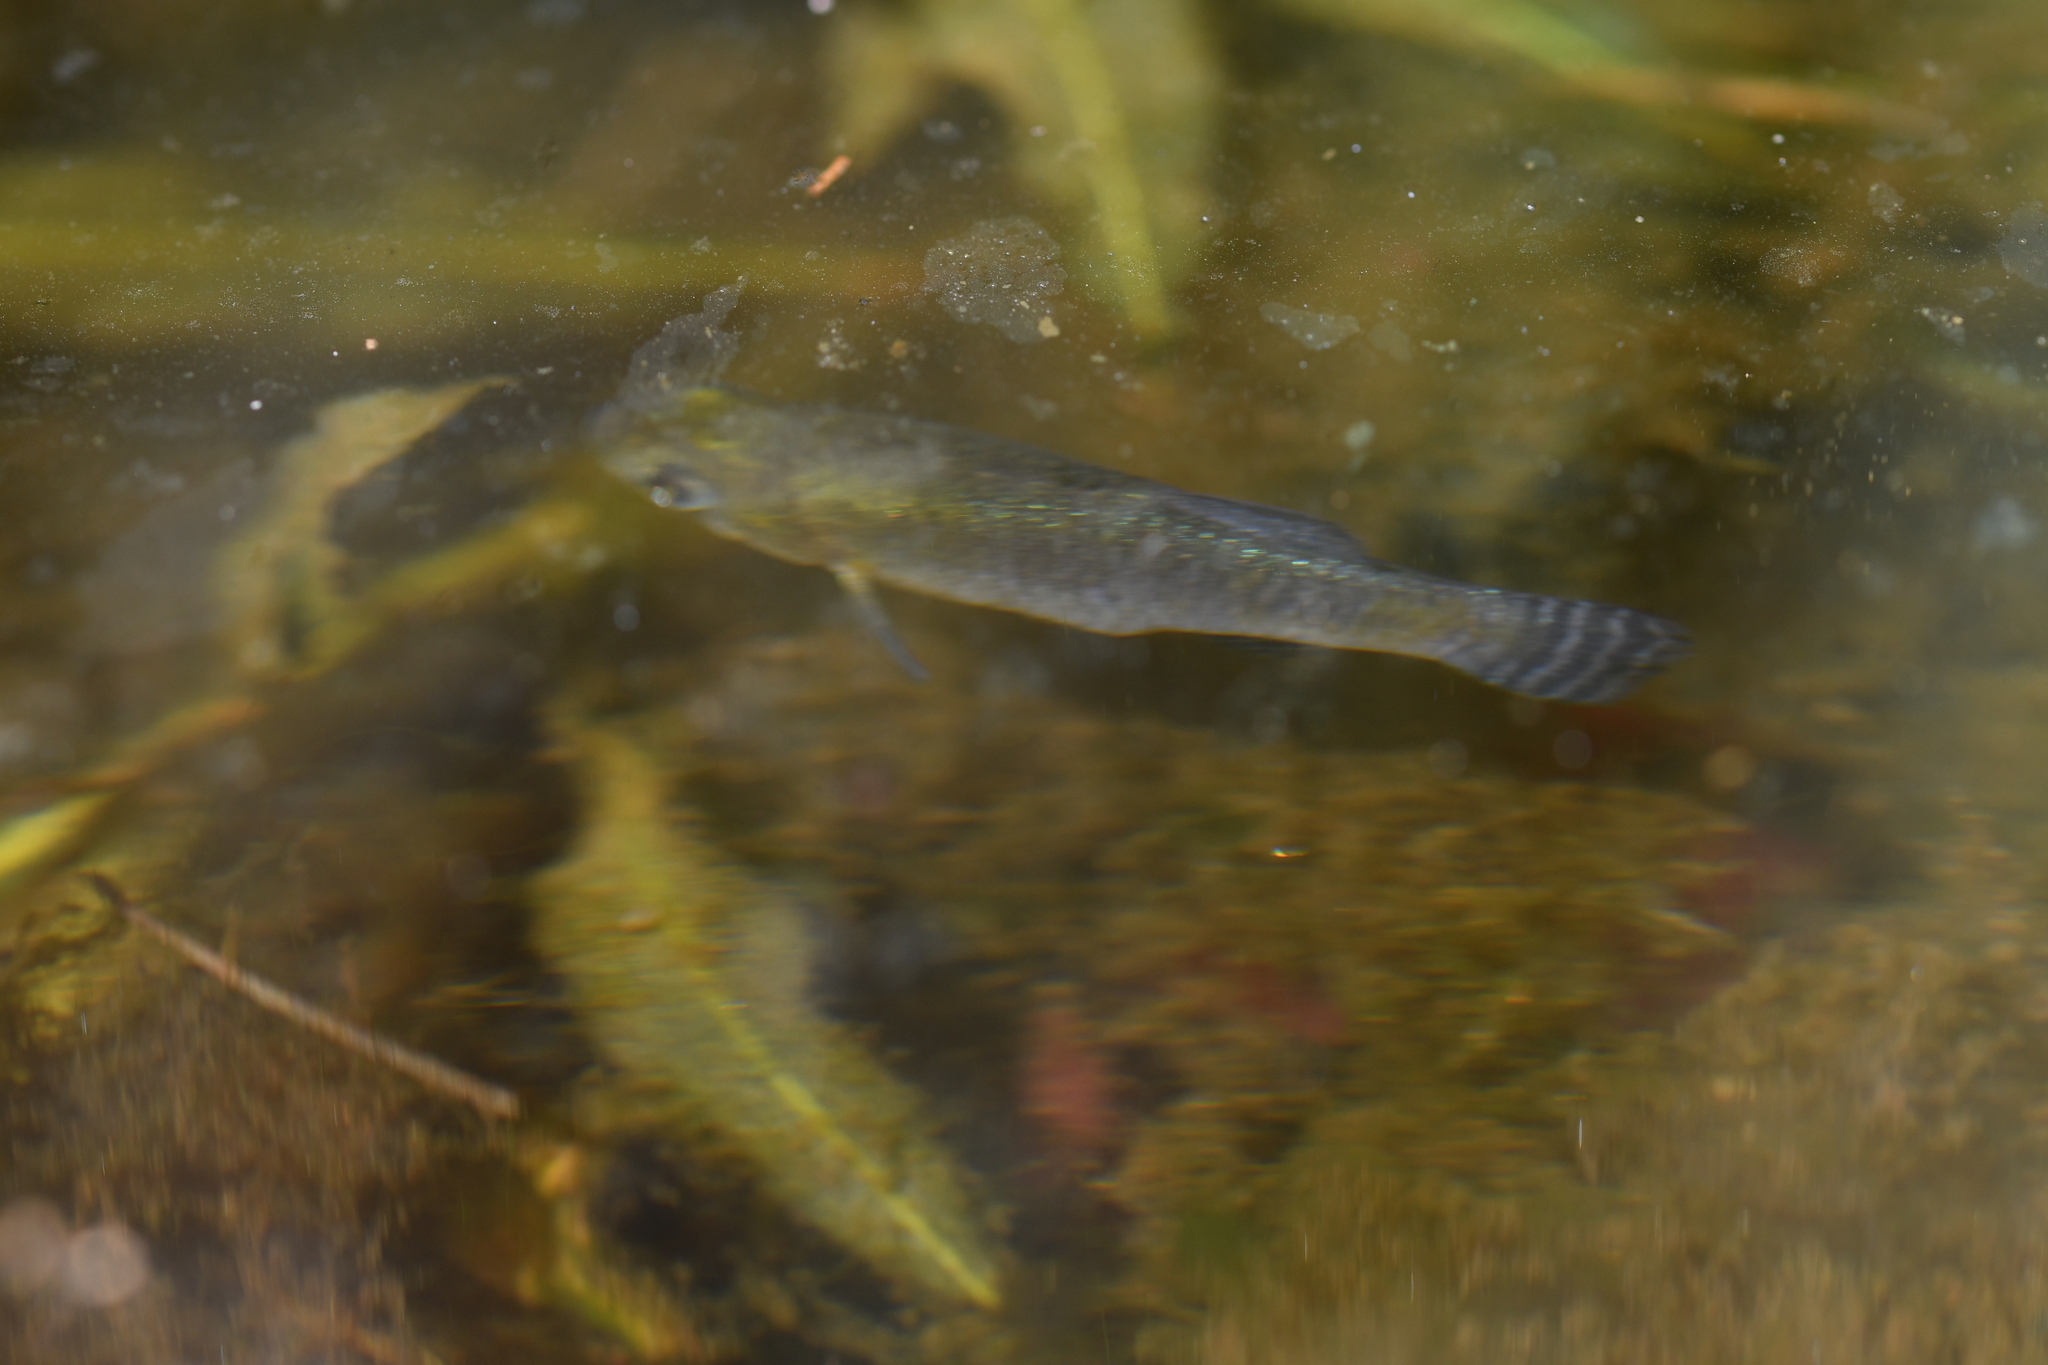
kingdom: Animalia
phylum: Chordata
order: Cyprinodontiformes
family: Aphaniidae
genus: Apricaphanius
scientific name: Apricaphanius baeticus
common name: Baetican killifish
